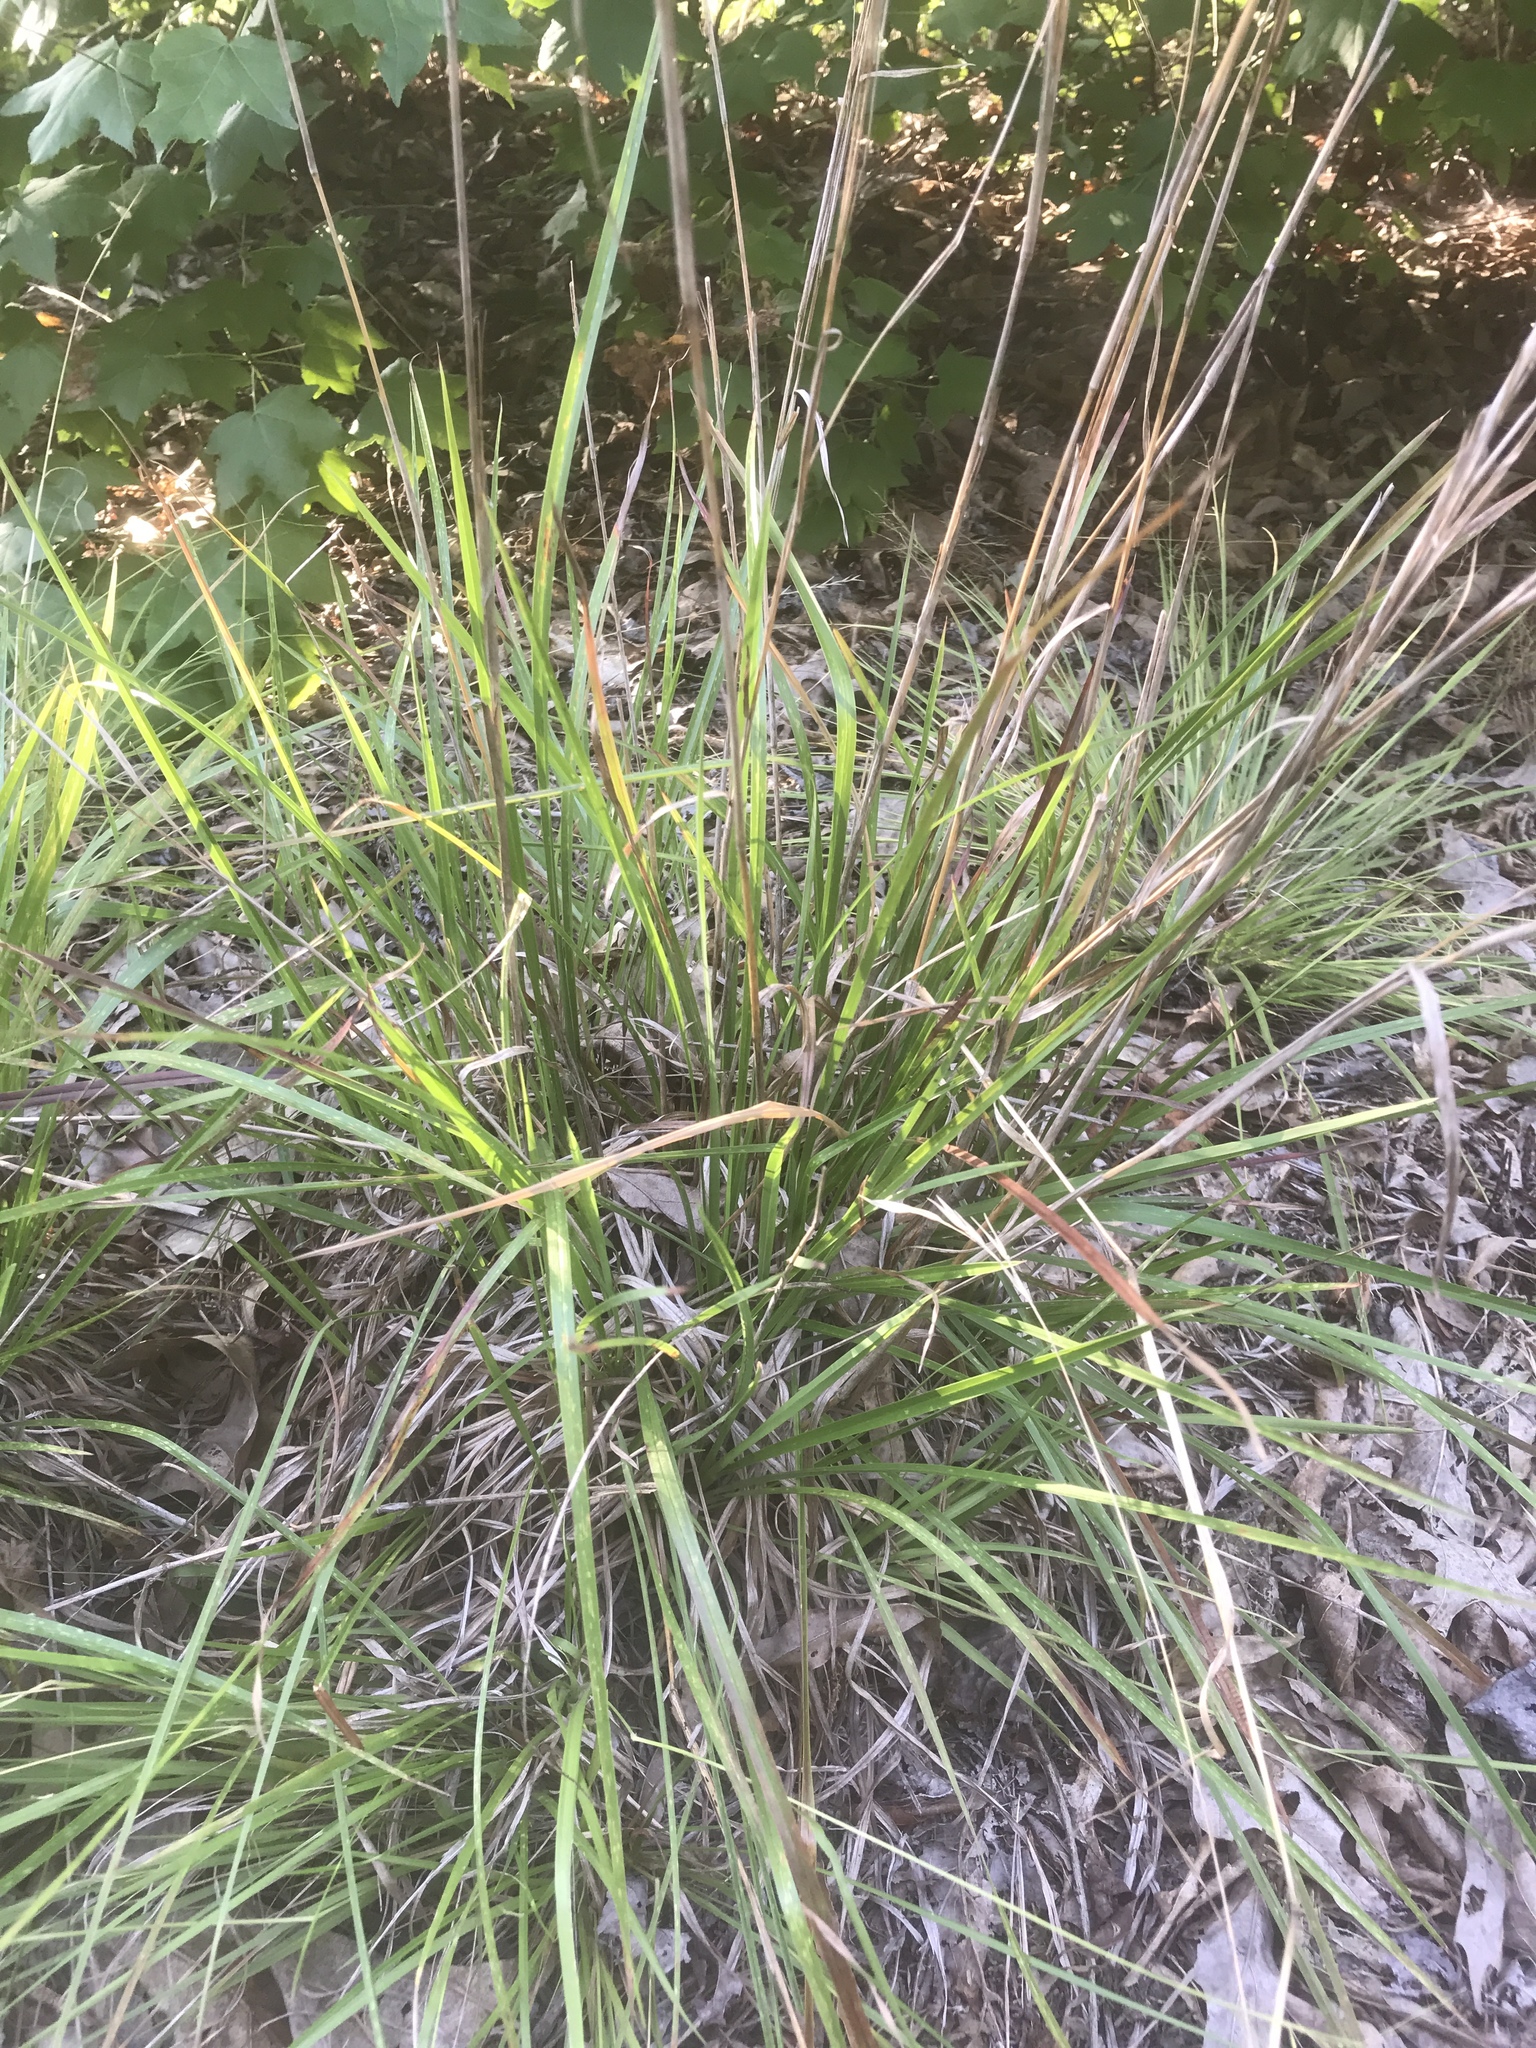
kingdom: Plantae
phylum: Tracheophyta
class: Liliopsida
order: Poales
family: Poaceae
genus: Schizachyrium
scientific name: Schizachyrium scoparium
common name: Little bluestem
